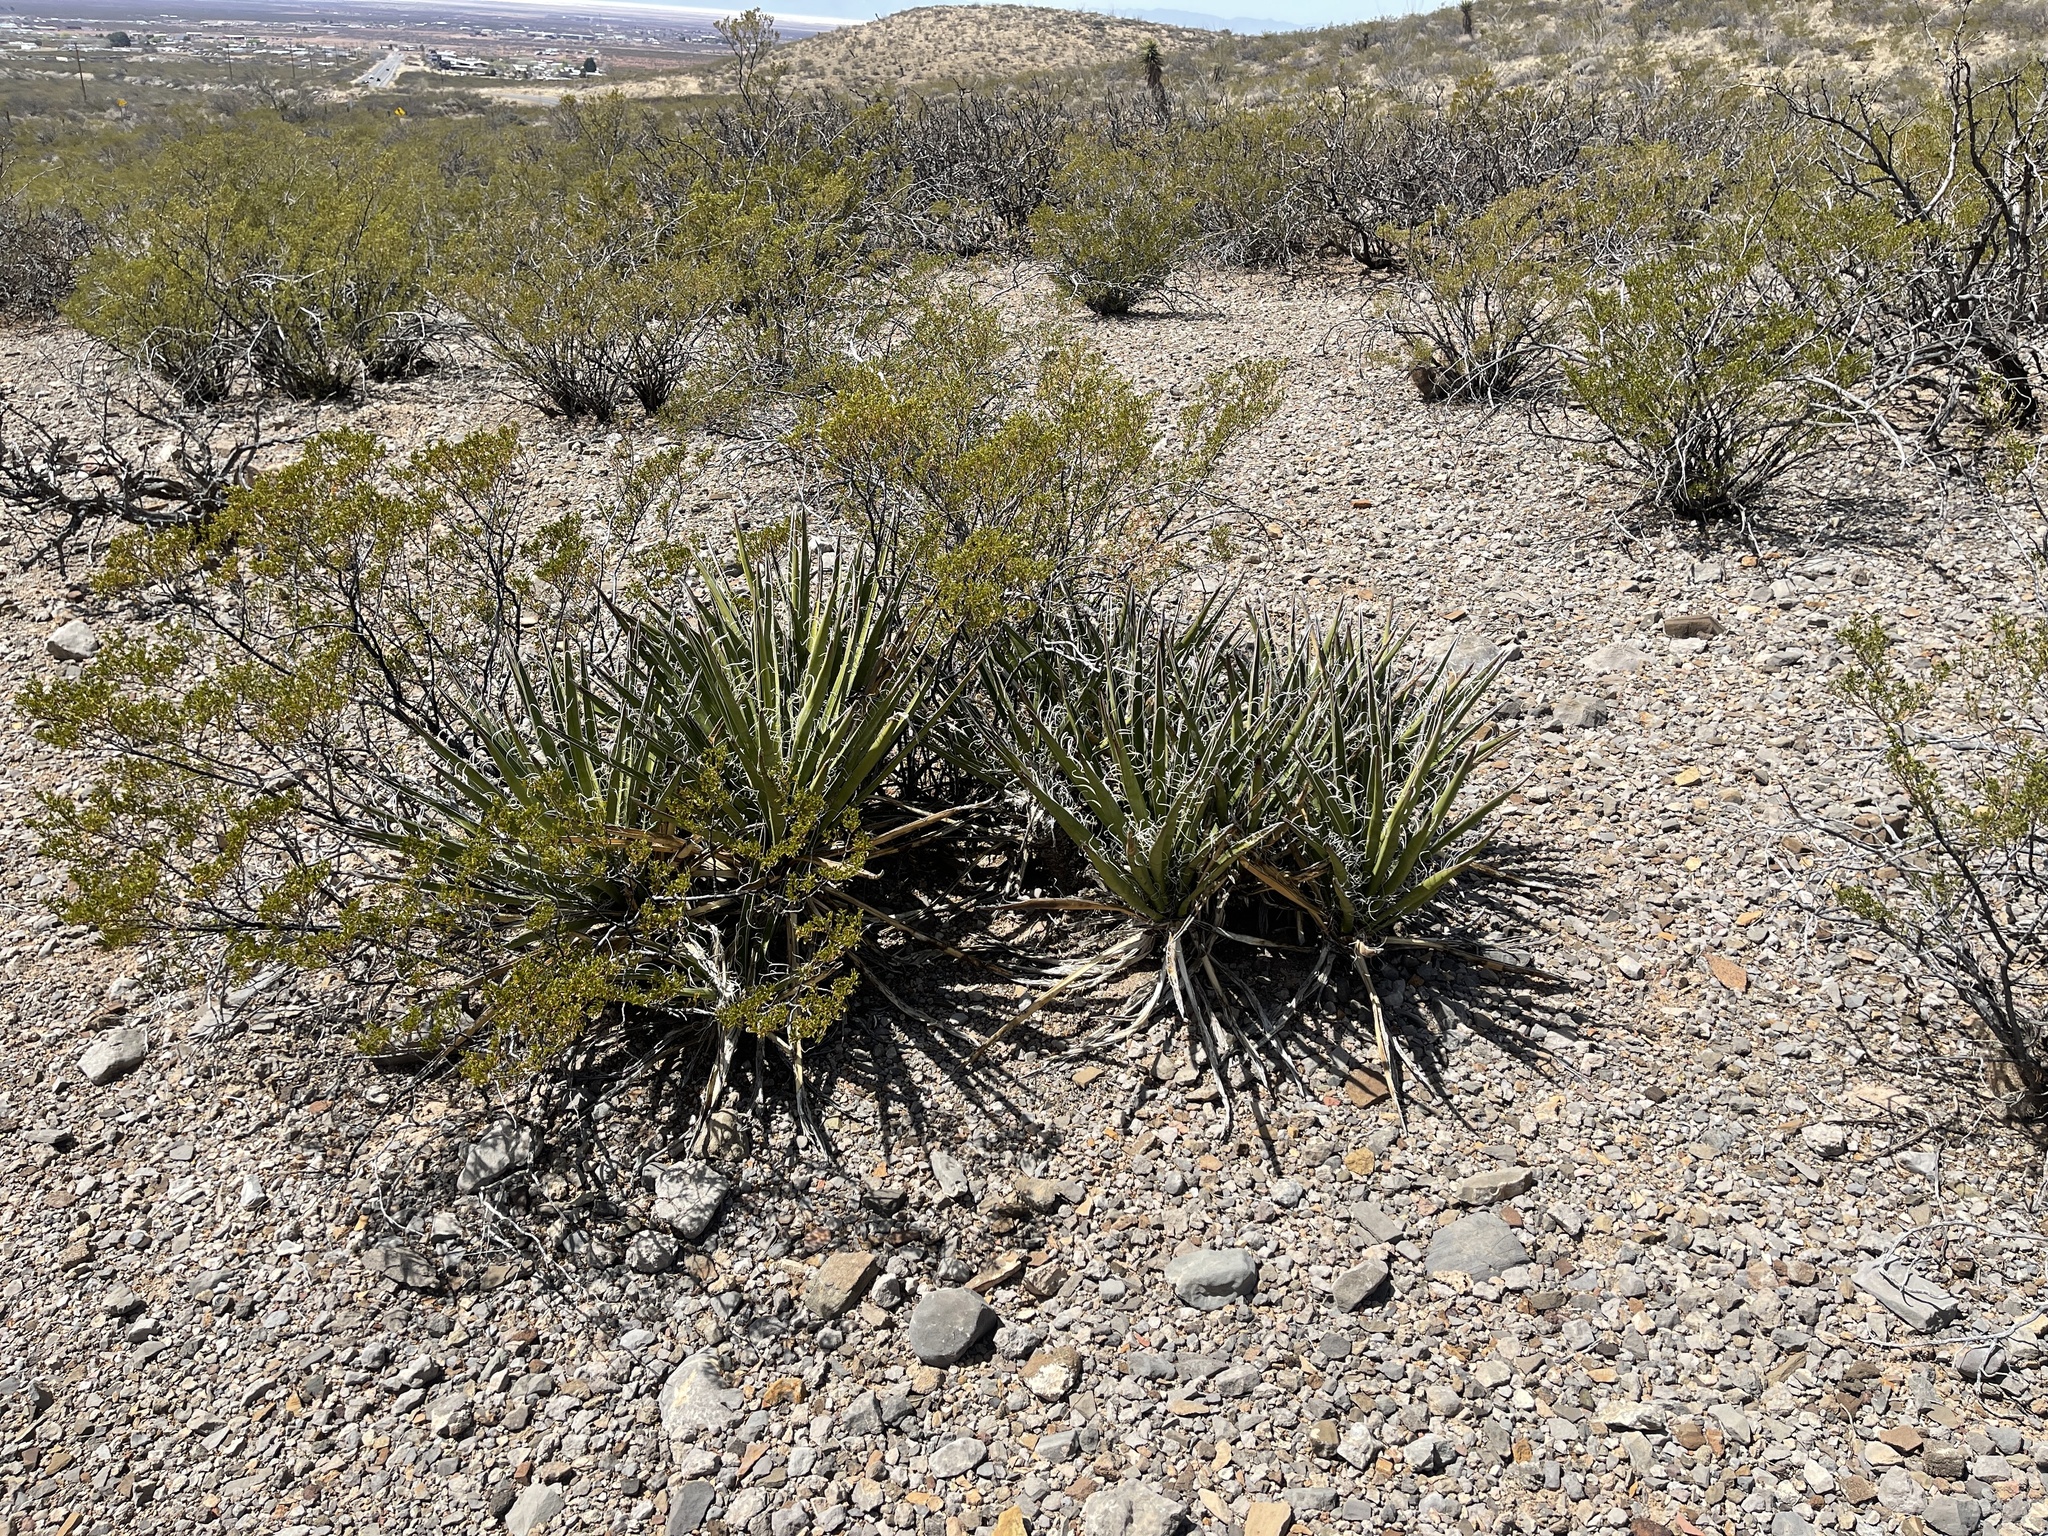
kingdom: Plantae
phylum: Tracheophyta
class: Liliopsida
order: Asparagales
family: Asparagaceae
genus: Yucca
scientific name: Yucca baccata
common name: Banana yucca
